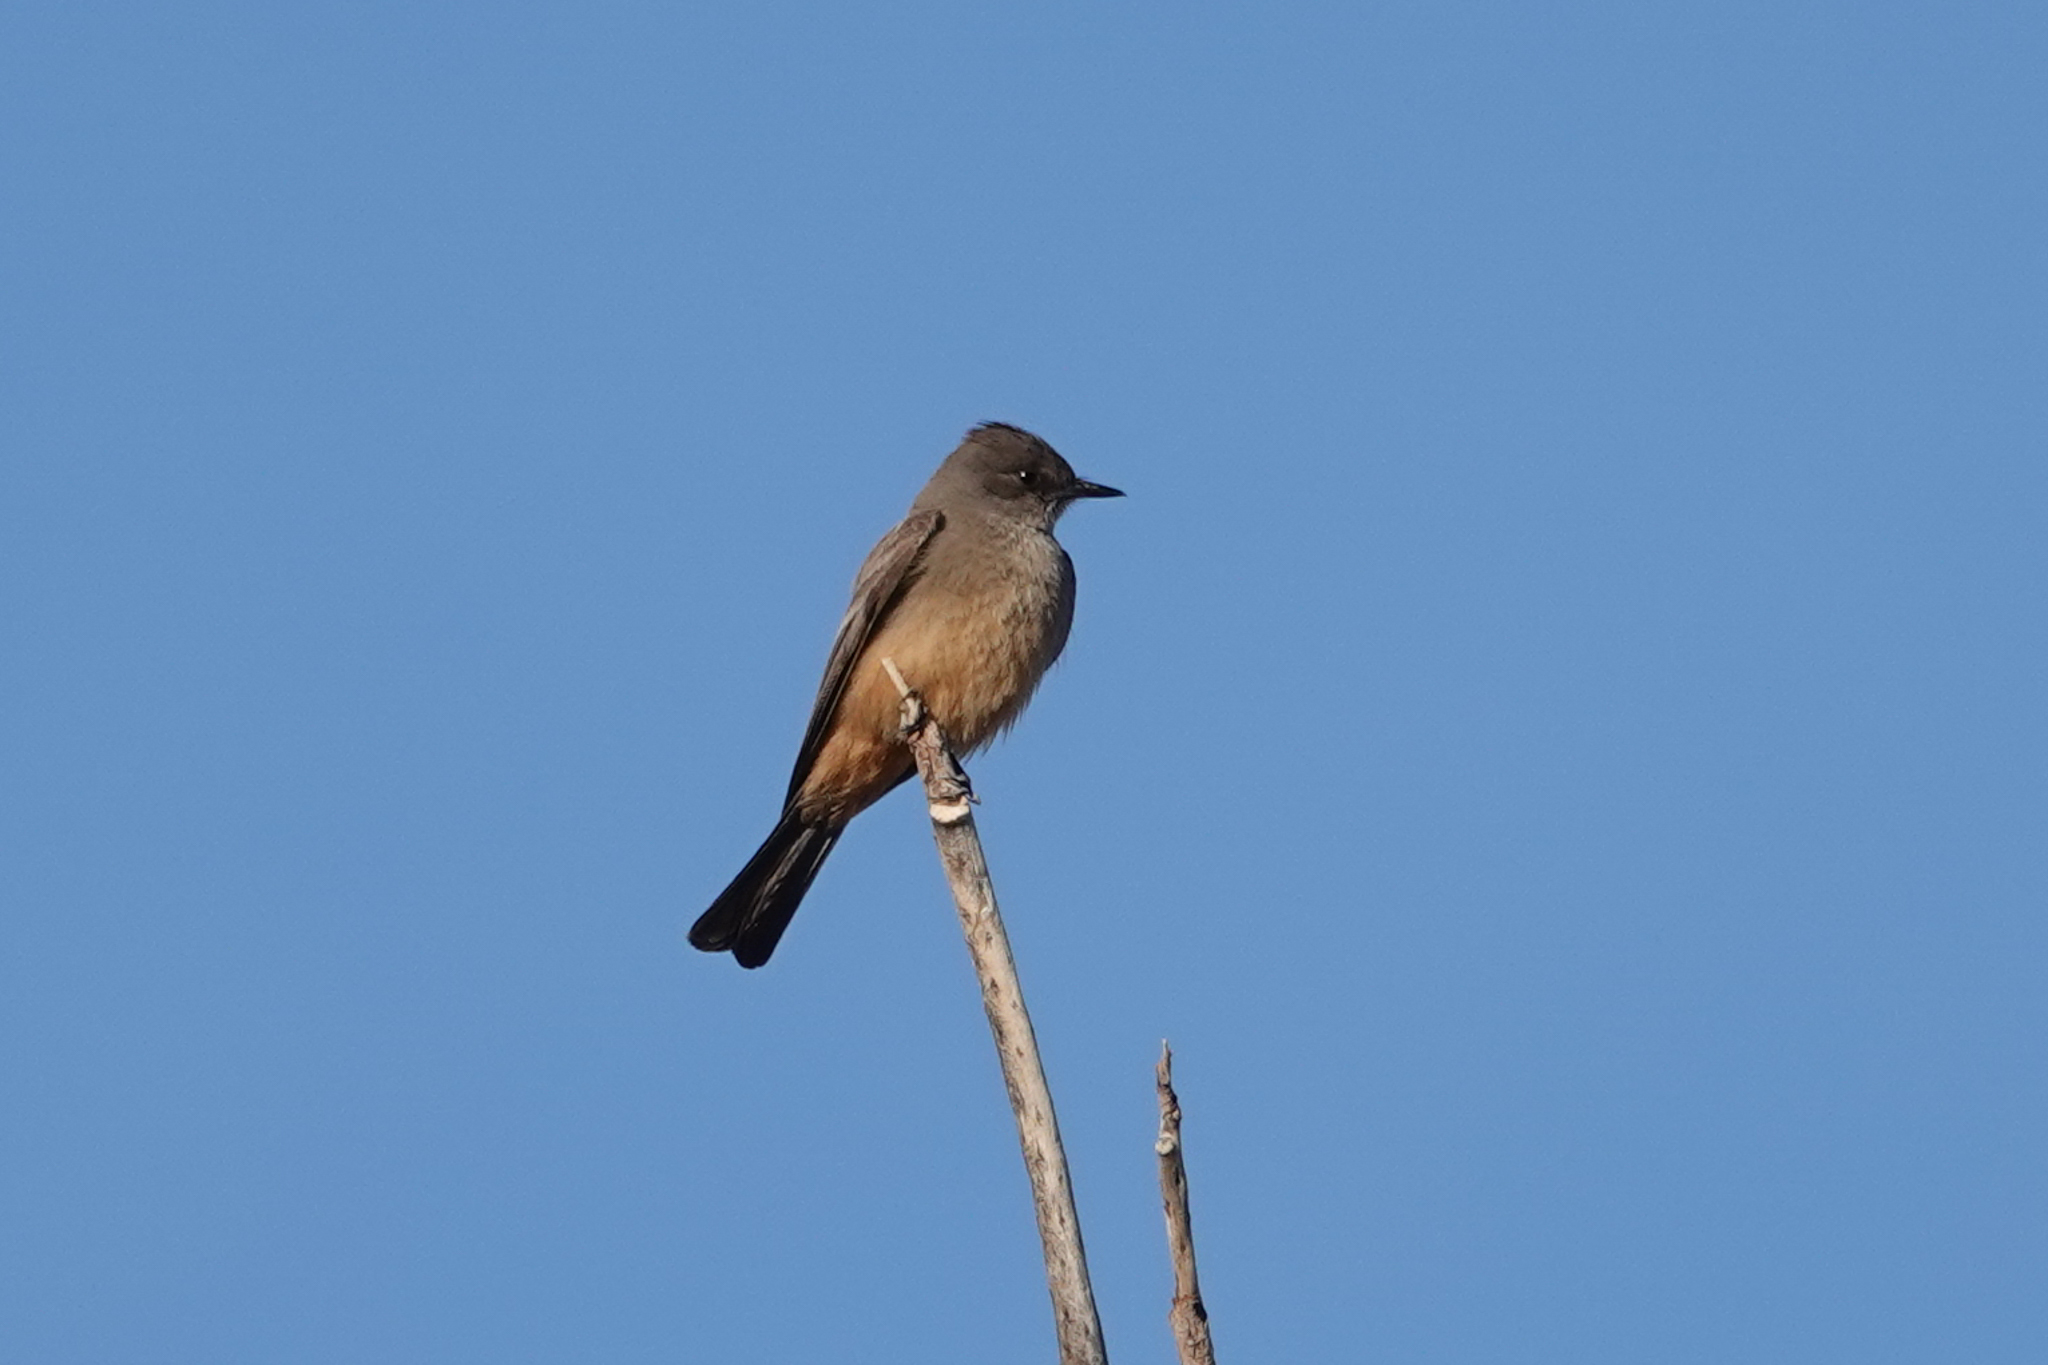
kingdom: Animalia
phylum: Chordata
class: Aves
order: Passeriformes
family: Tyrannidae
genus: Sayornis
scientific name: Sayornis saya
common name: Say's phoebe
